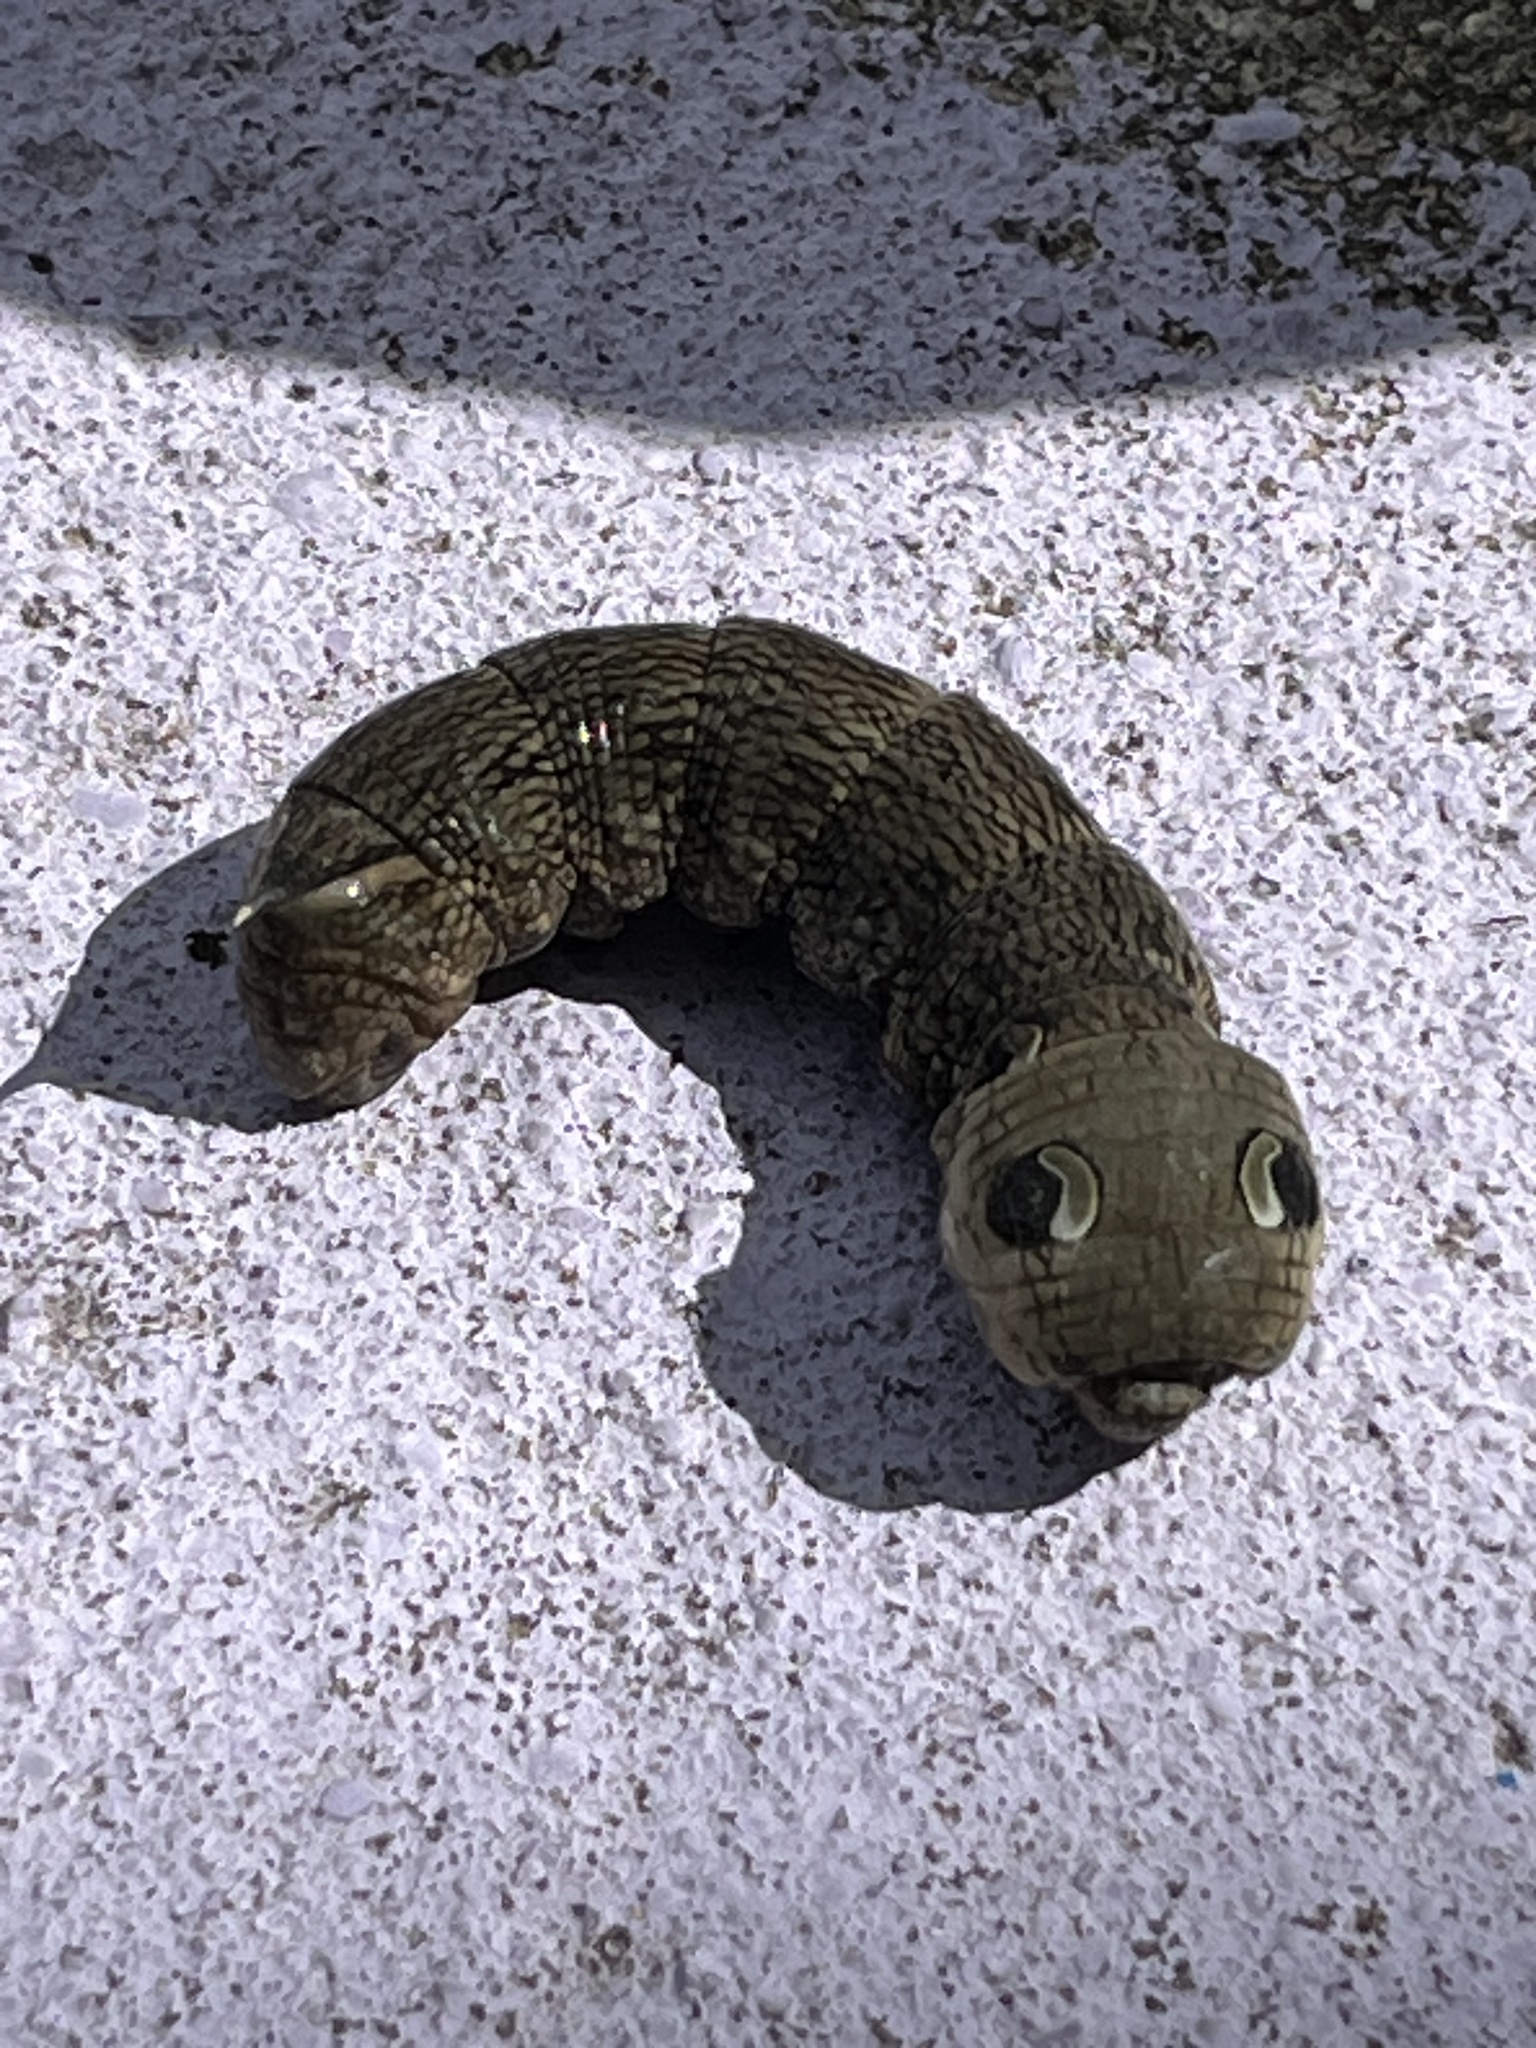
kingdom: Animalia
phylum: Arthropoda
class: Insecta
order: Lepidoptera
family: Sphingidae
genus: Deilephila
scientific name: Deilephila elpenor
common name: Elephant hawk-moth
